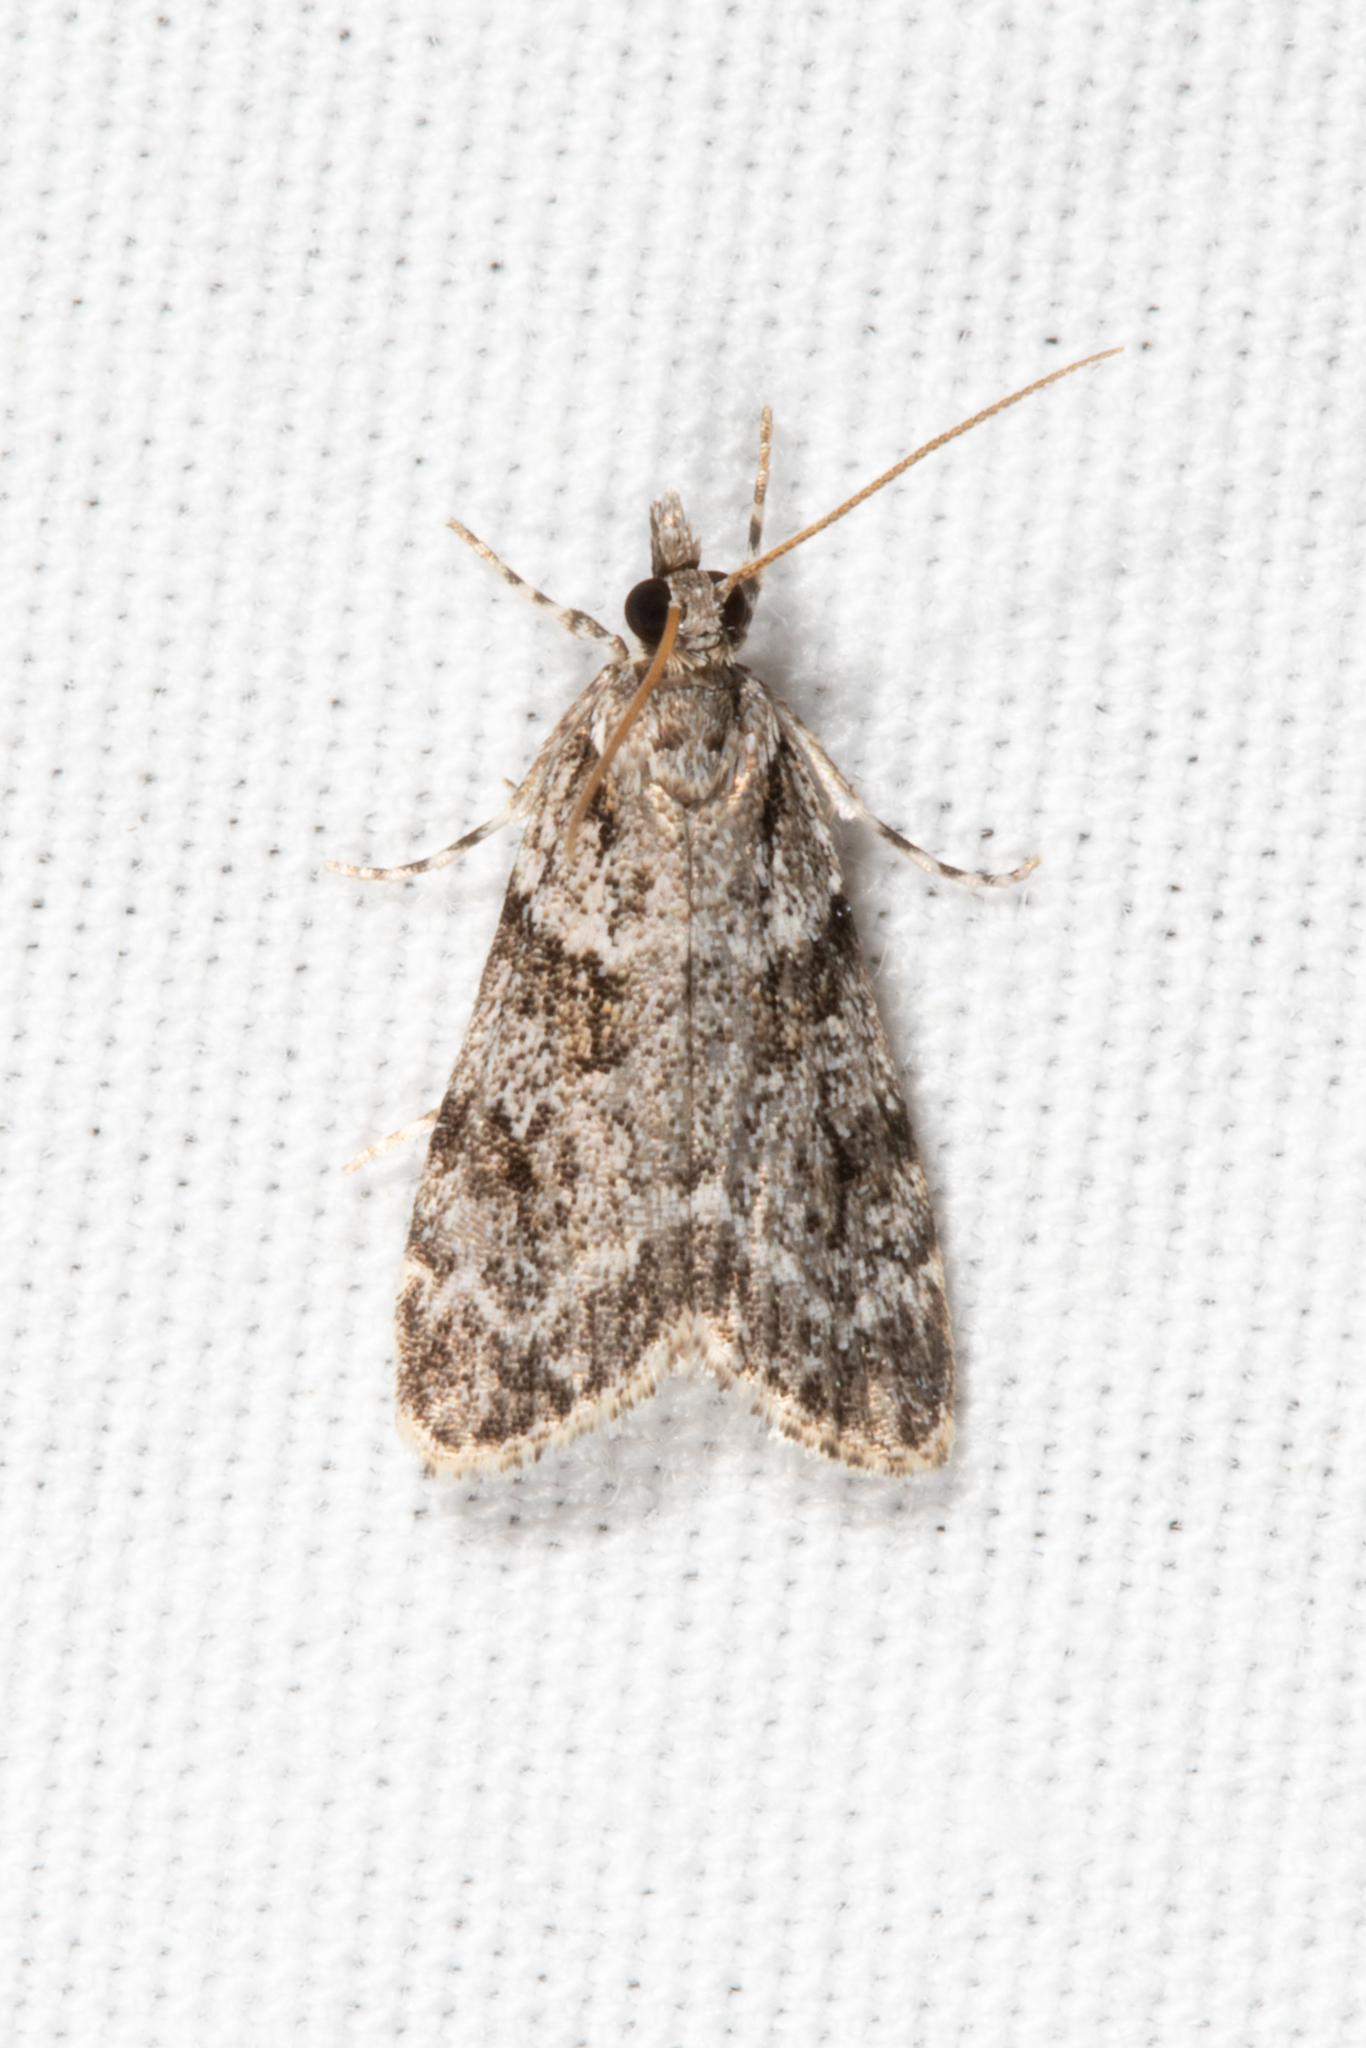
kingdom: Animalia
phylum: Arthropoda
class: Insecta
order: Lepidoptera
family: Crambidae
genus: Scoparia
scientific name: Scoparia biplagialis
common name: Double-striped scoparia moth
